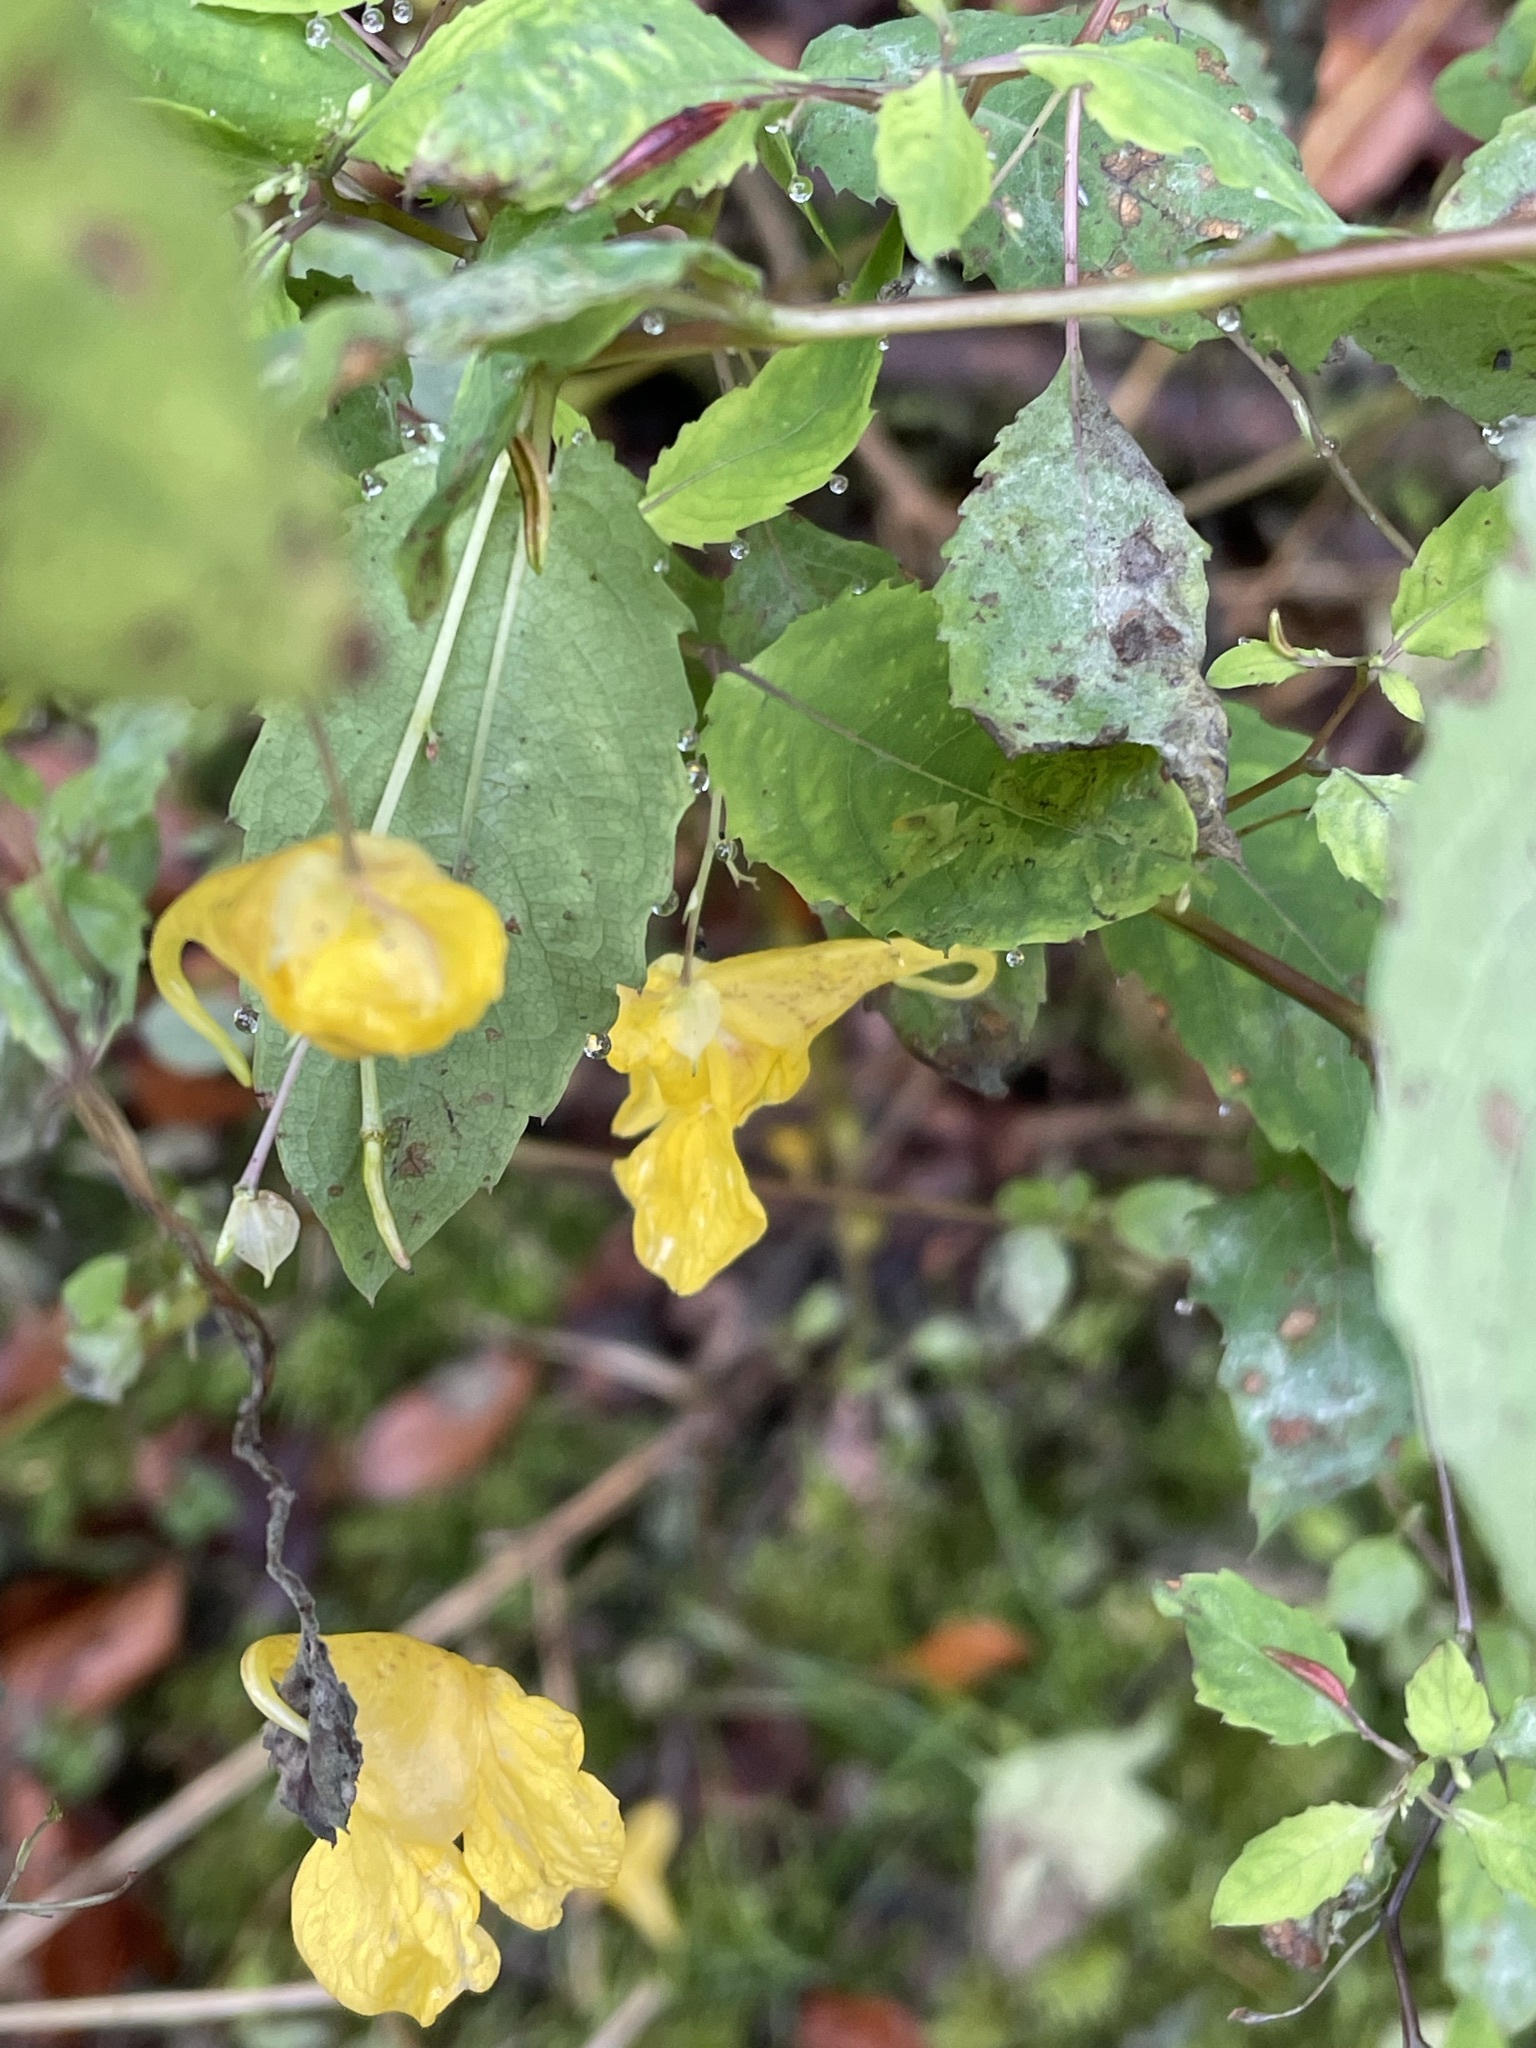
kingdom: Plantae
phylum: Tracheophyta
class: Magnoliopsida
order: Ericales
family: Balsaminaceae
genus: Impatiens
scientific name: Impatiens noli-tangere
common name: Touch-me-not balsam
